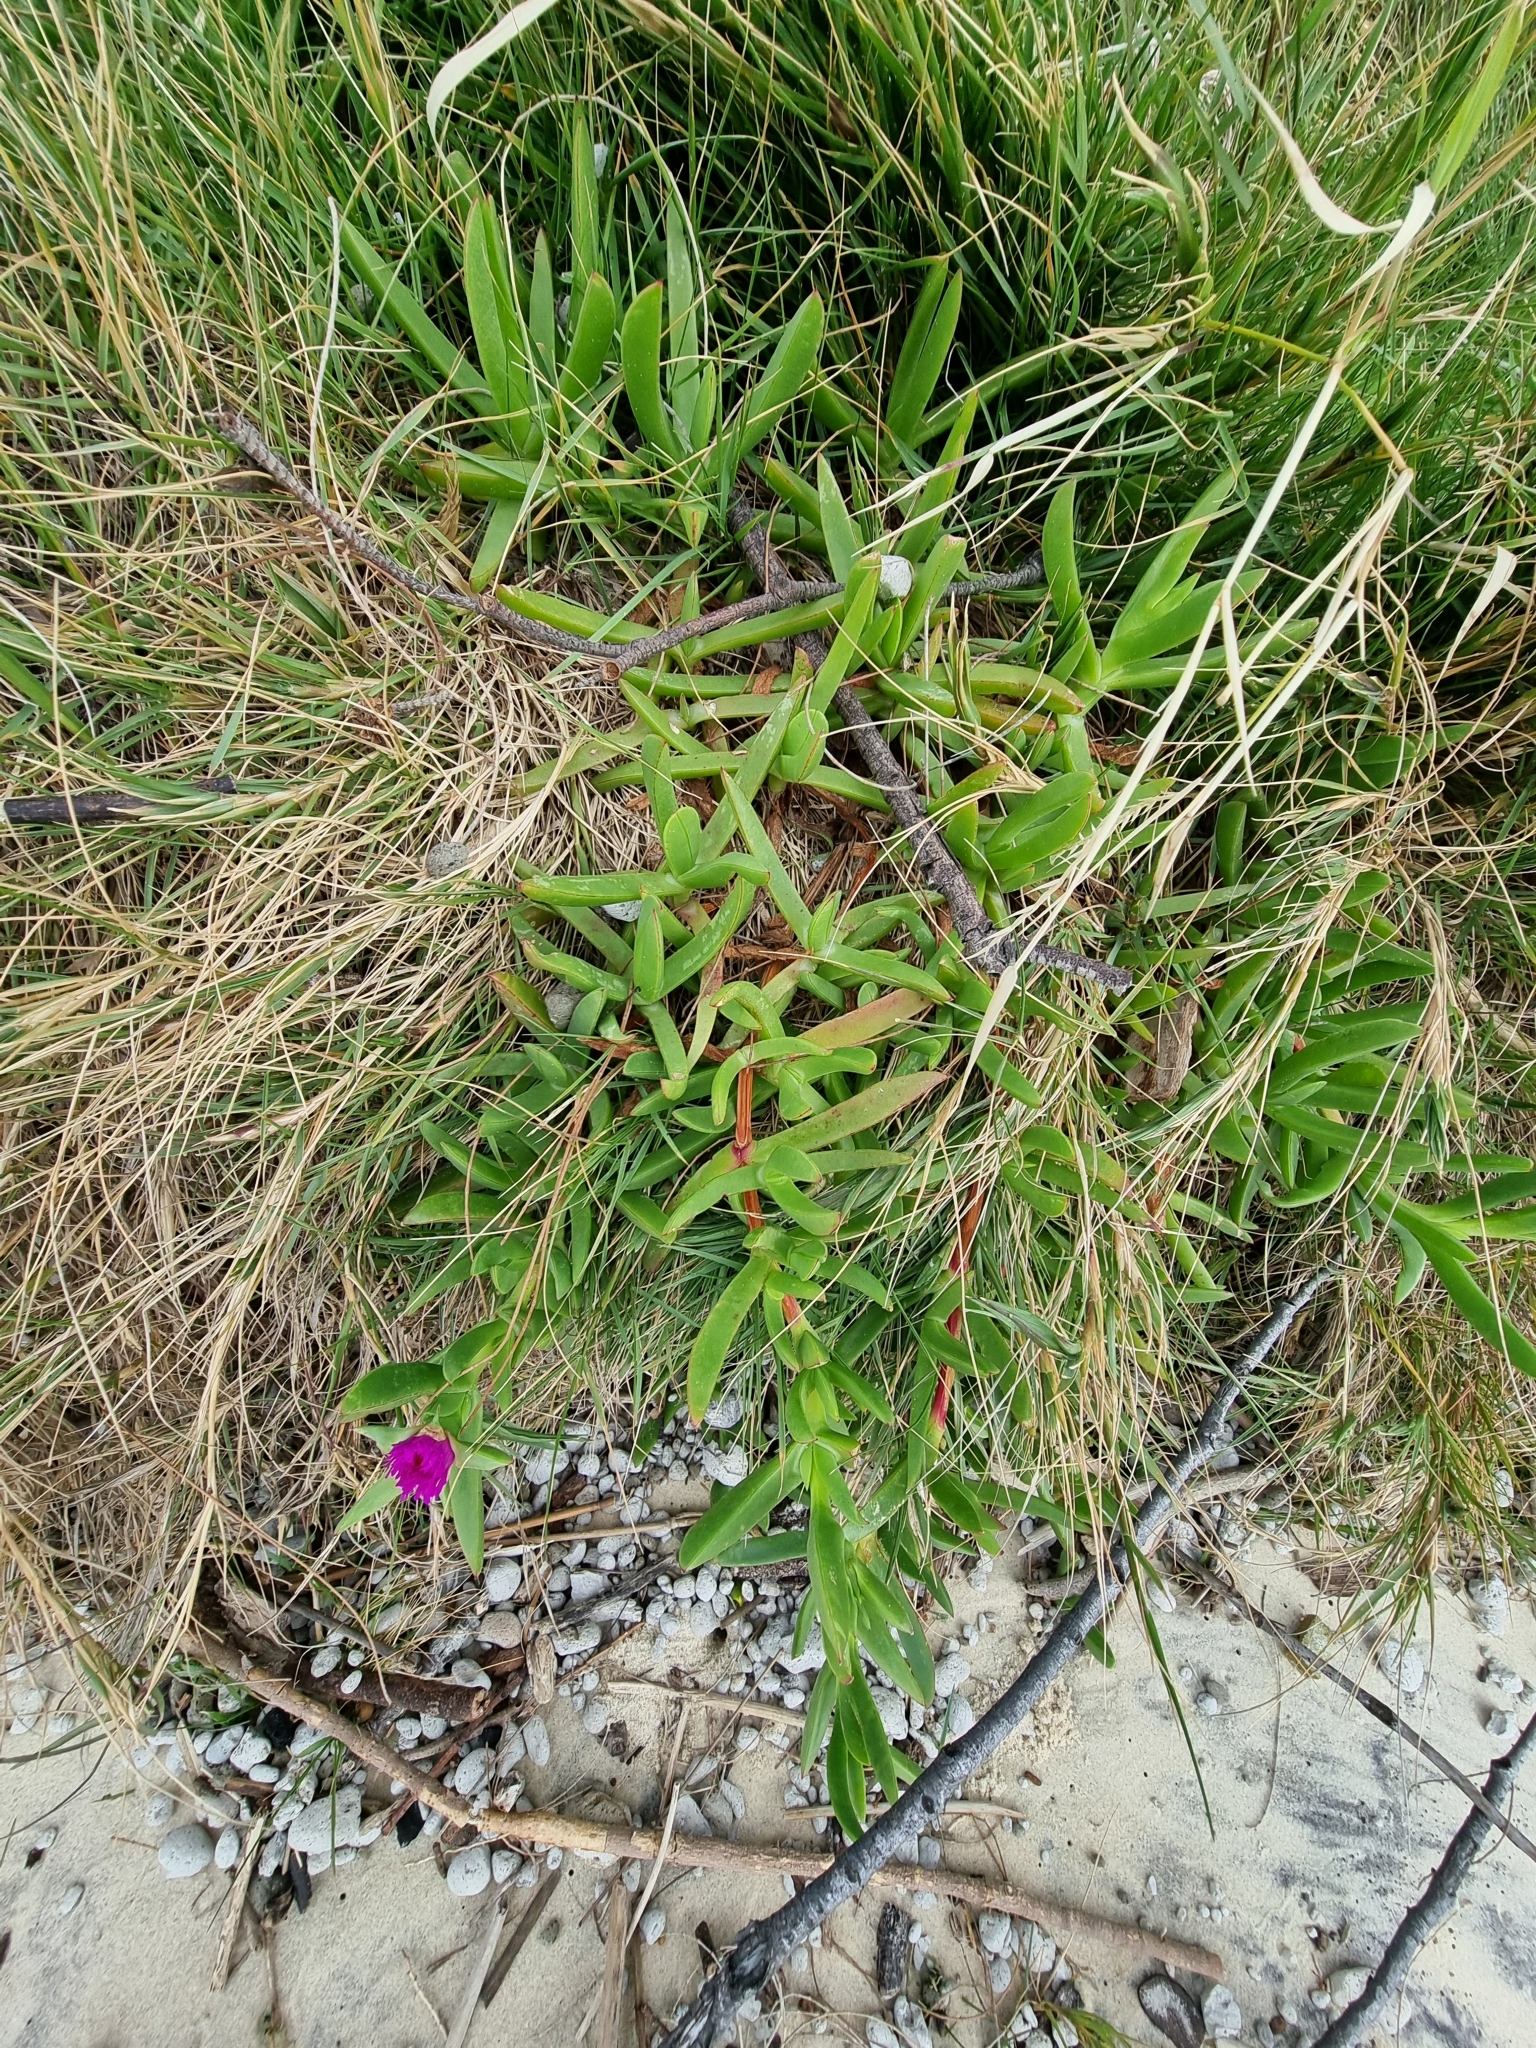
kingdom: Plantae
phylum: Tracheophyta
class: Magnoliopsida
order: Caryophyllales
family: Aizoaceae
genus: Carpobrotus
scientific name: Carpobrotus glaucescens
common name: Angular sea-fig
